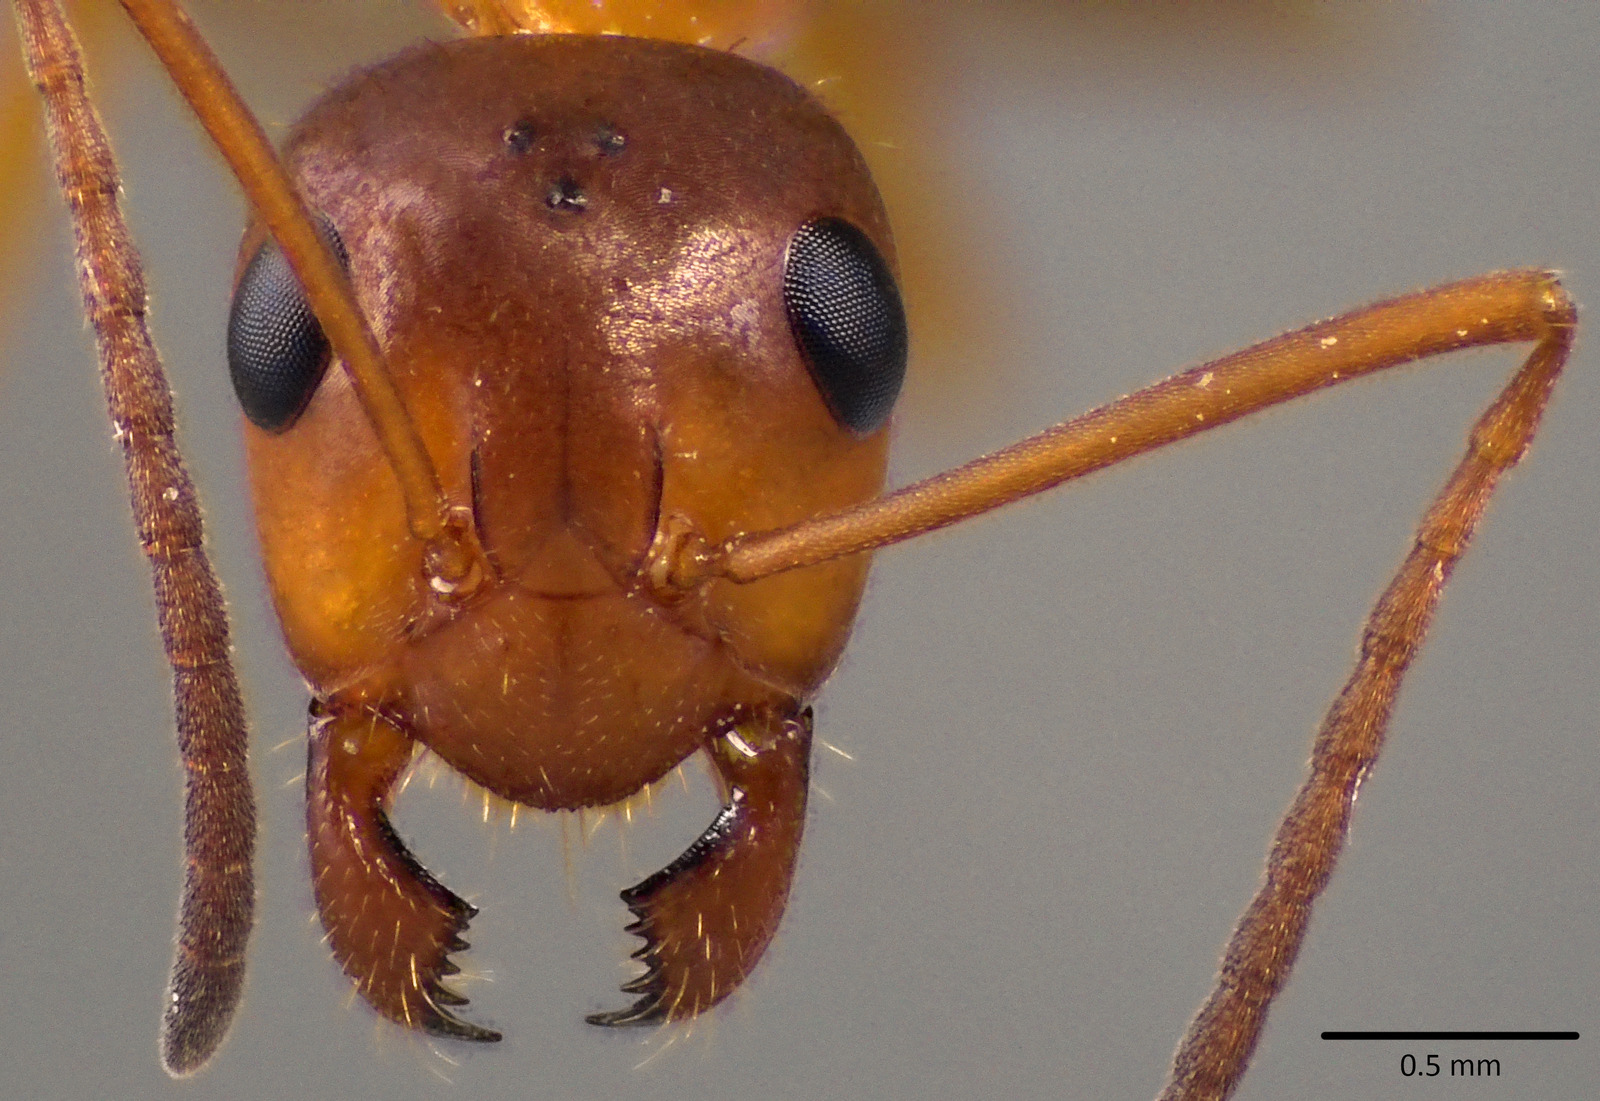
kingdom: Animalia
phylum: Arthropoda
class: Insecta
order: Hymenoptera
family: Formicidae
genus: Formica
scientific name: Formica incerta
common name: Uncertain field ant
